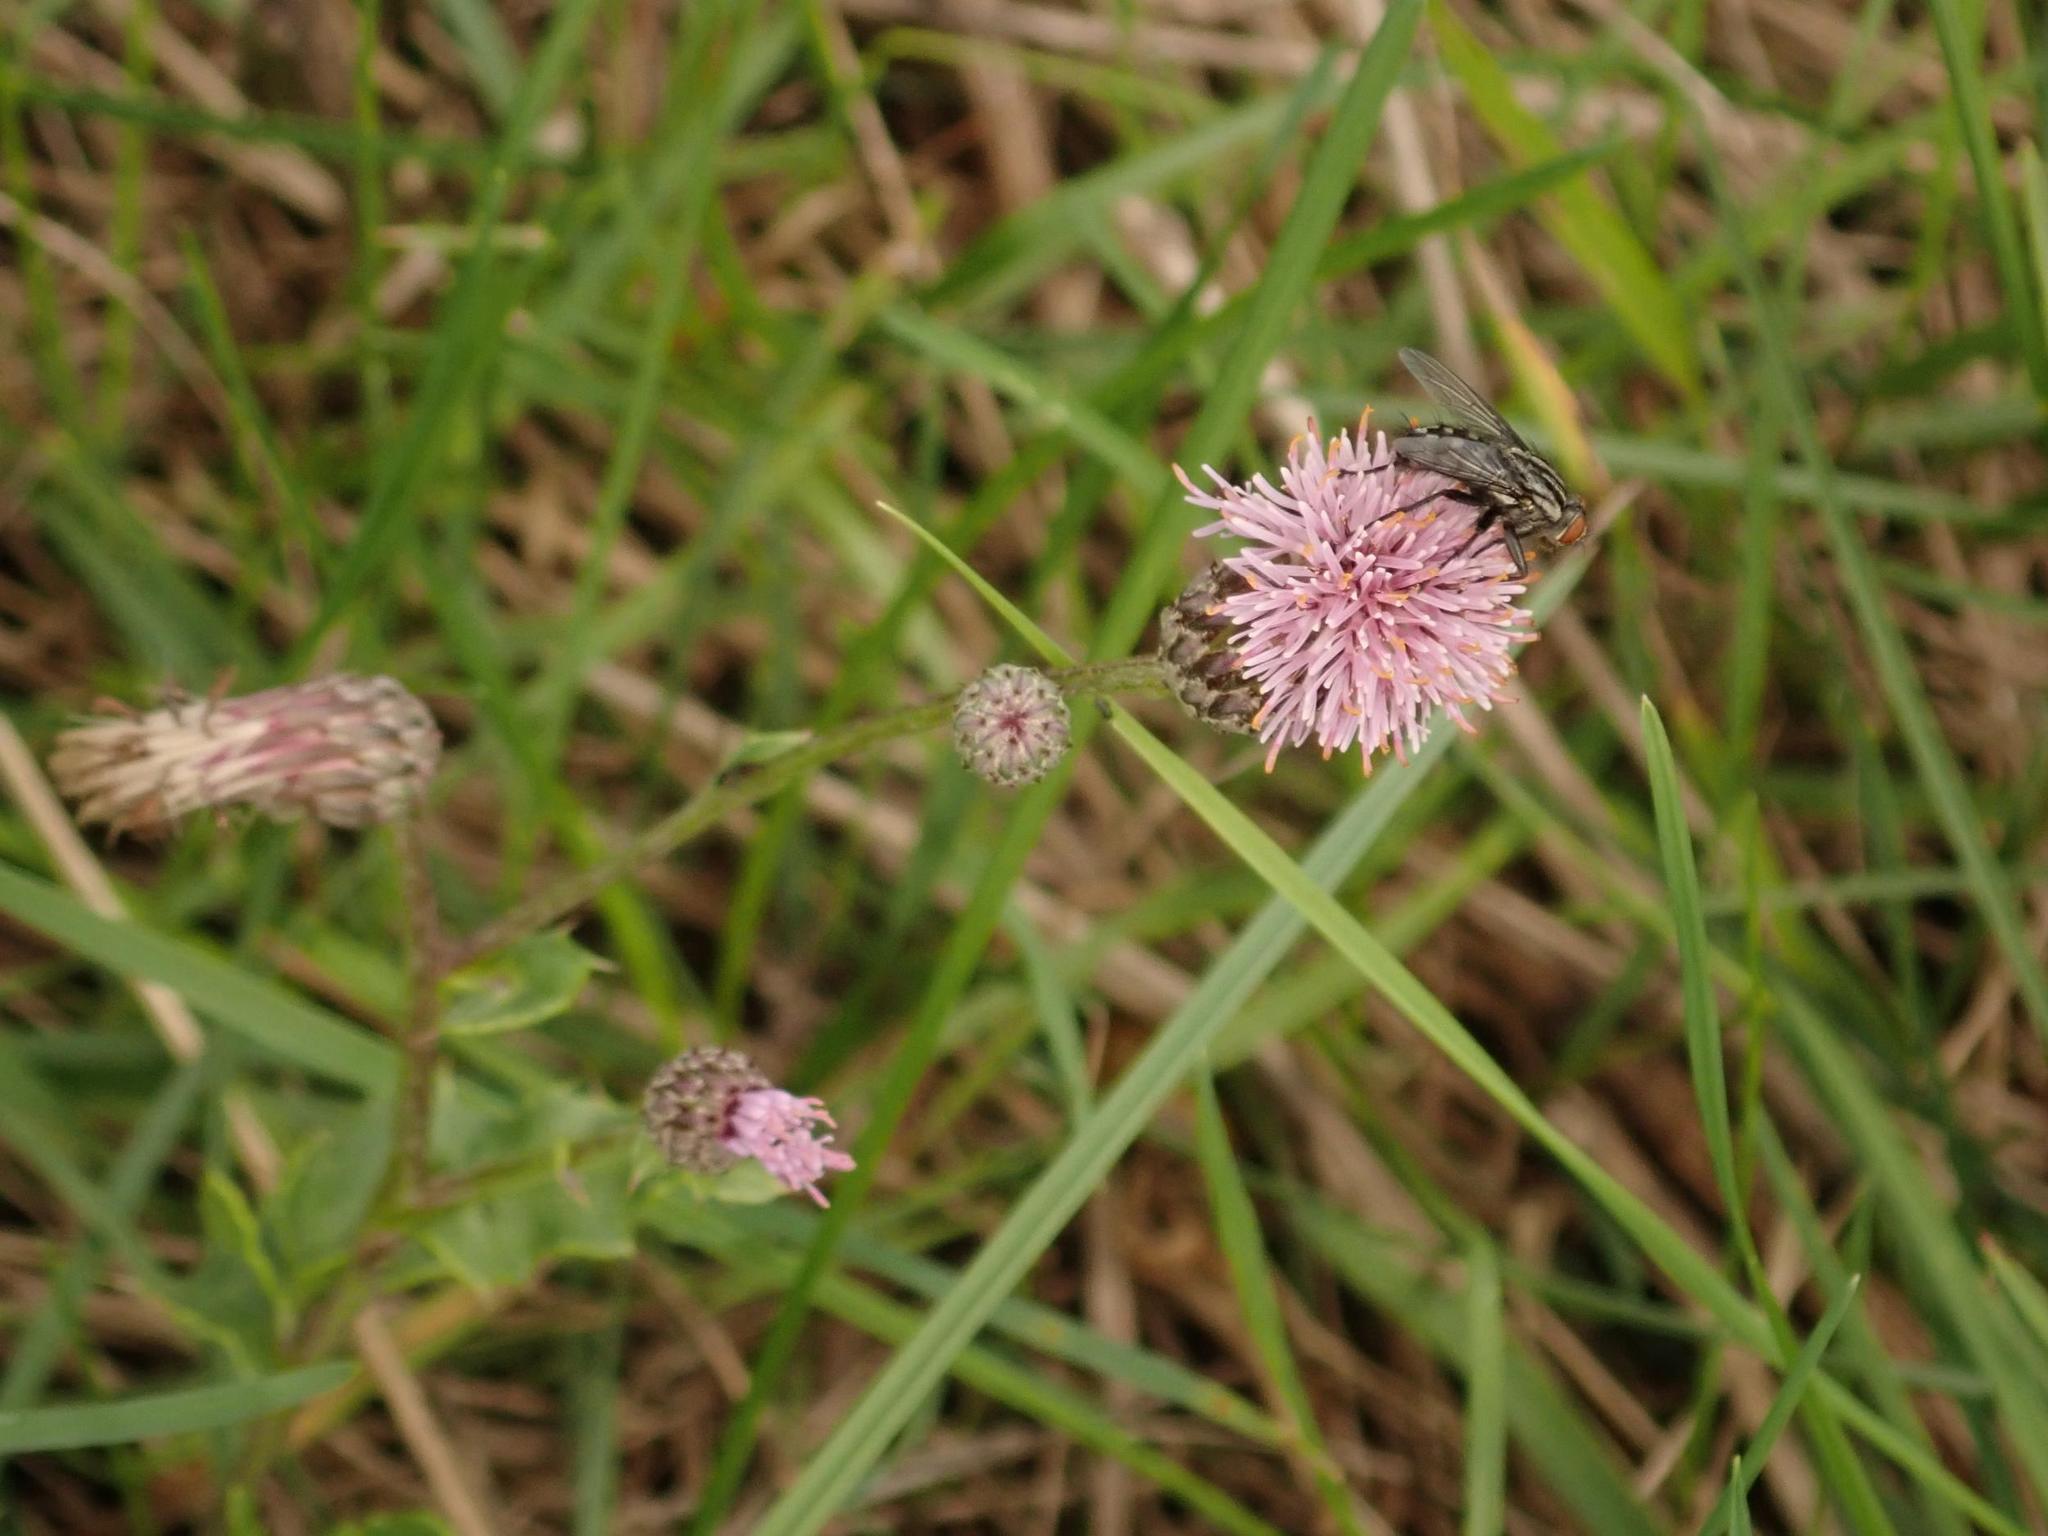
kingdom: Plantae
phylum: Tracheophyta
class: Magnoliopsida
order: Asterales
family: Asteraceae
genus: Cirsium
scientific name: Cirsium arvense
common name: Creeping thistle
